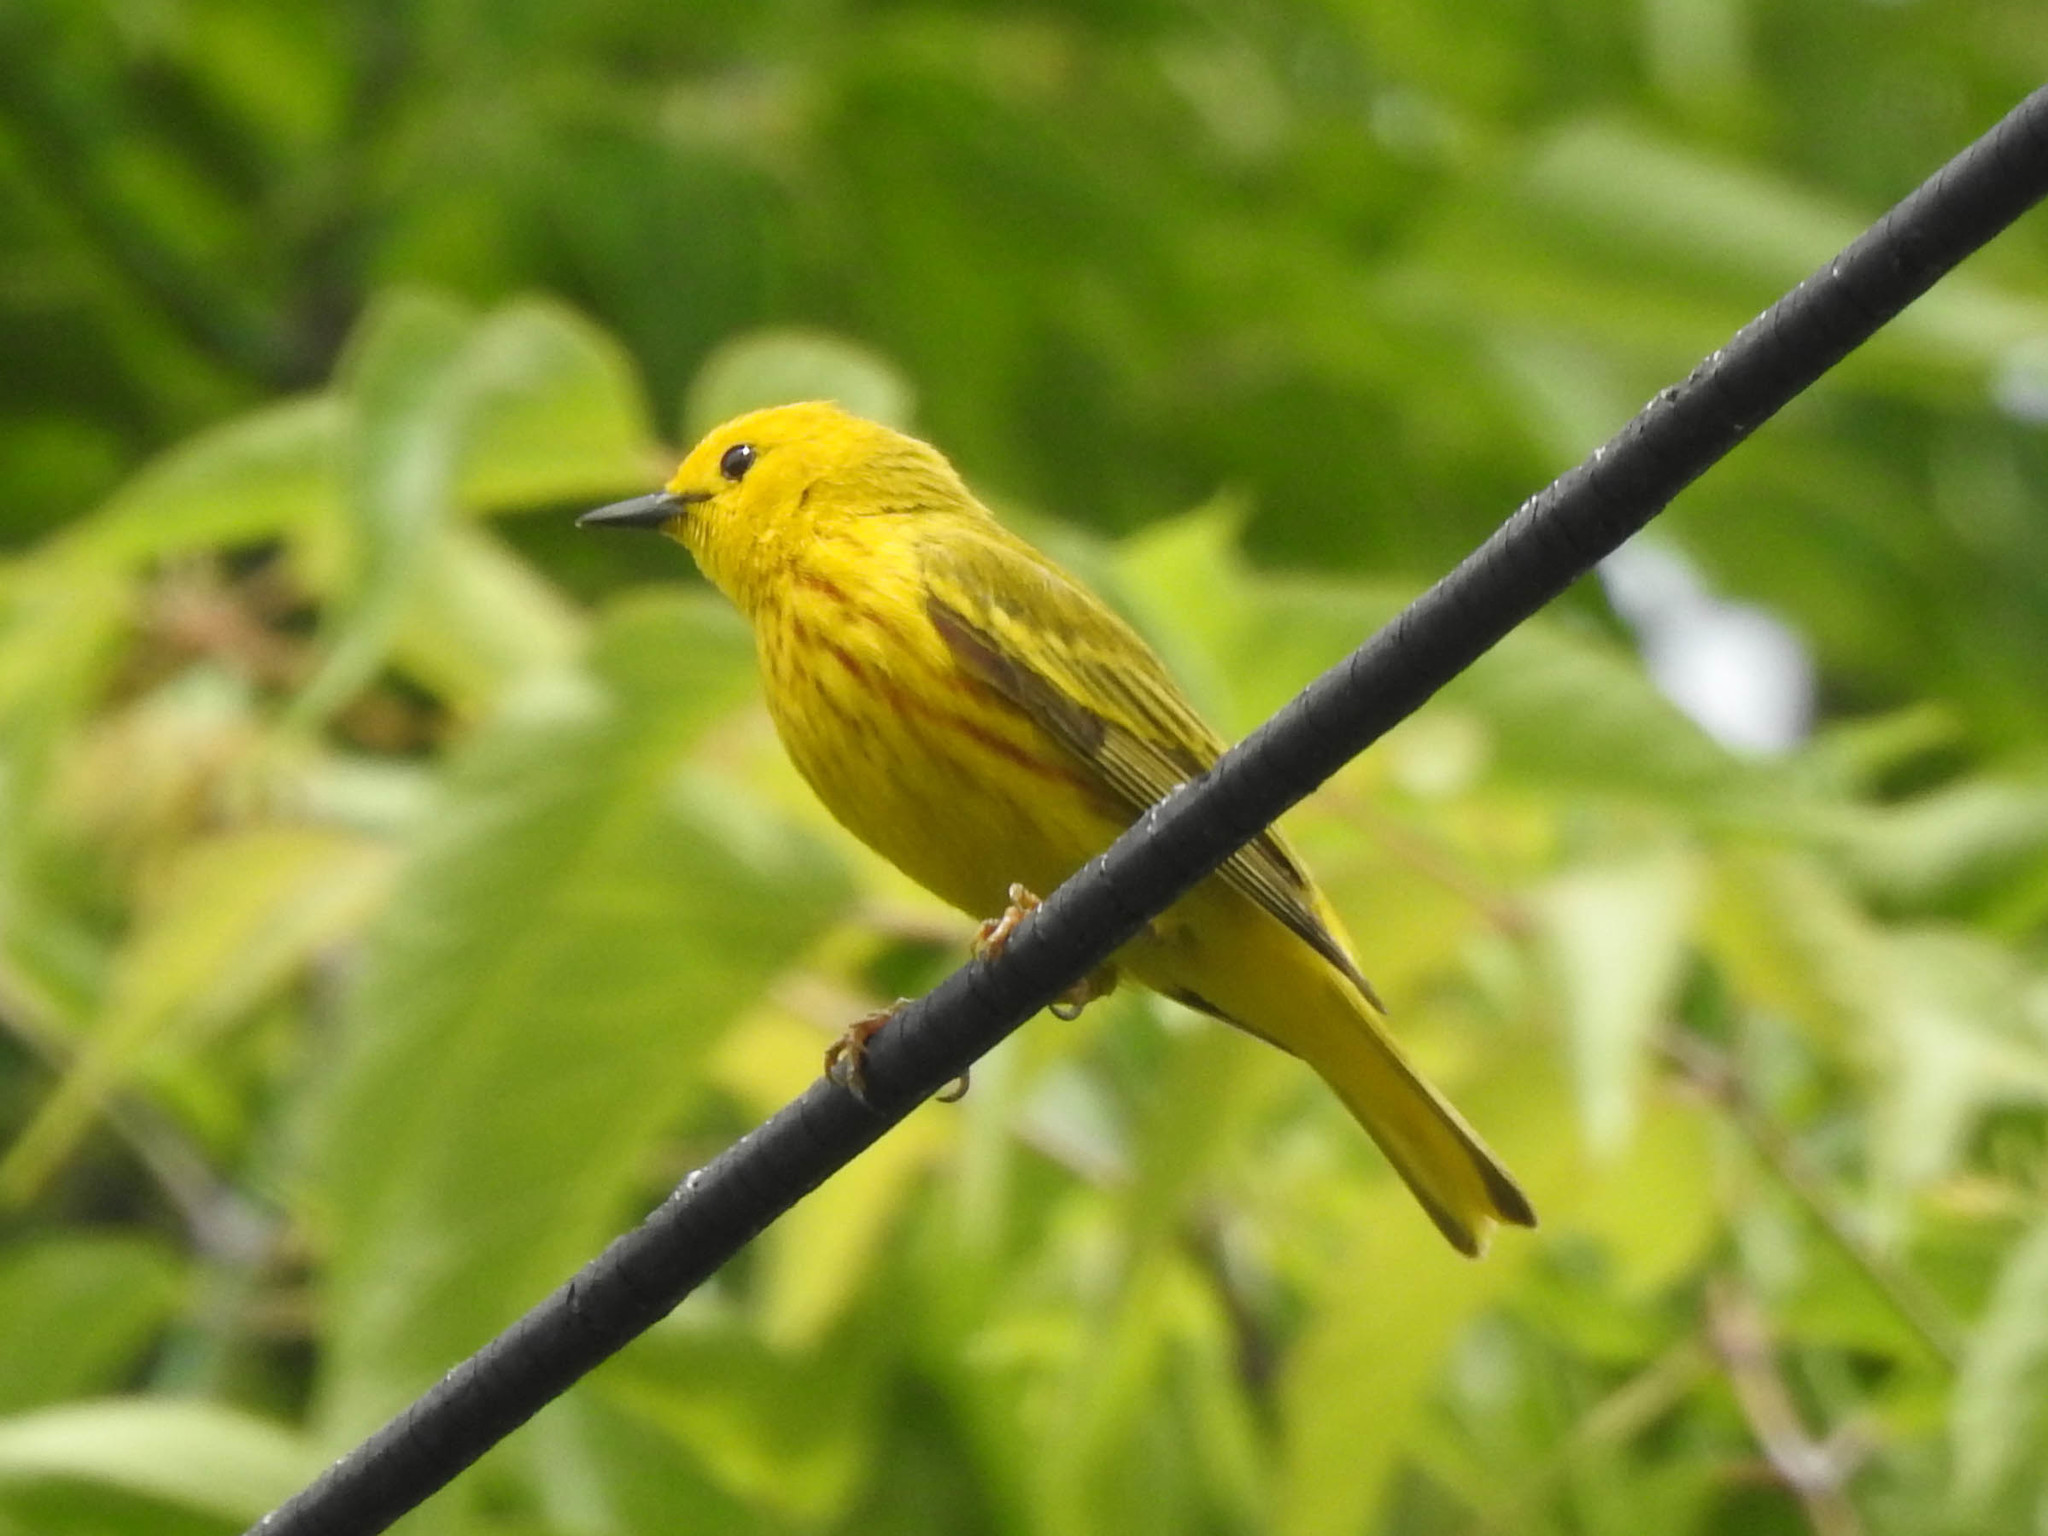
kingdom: Animalia
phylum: Chordata
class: Aves
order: Passeriformes
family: Parulidae
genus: Setophaga
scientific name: Setophaga petechia
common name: Yellow warbler
